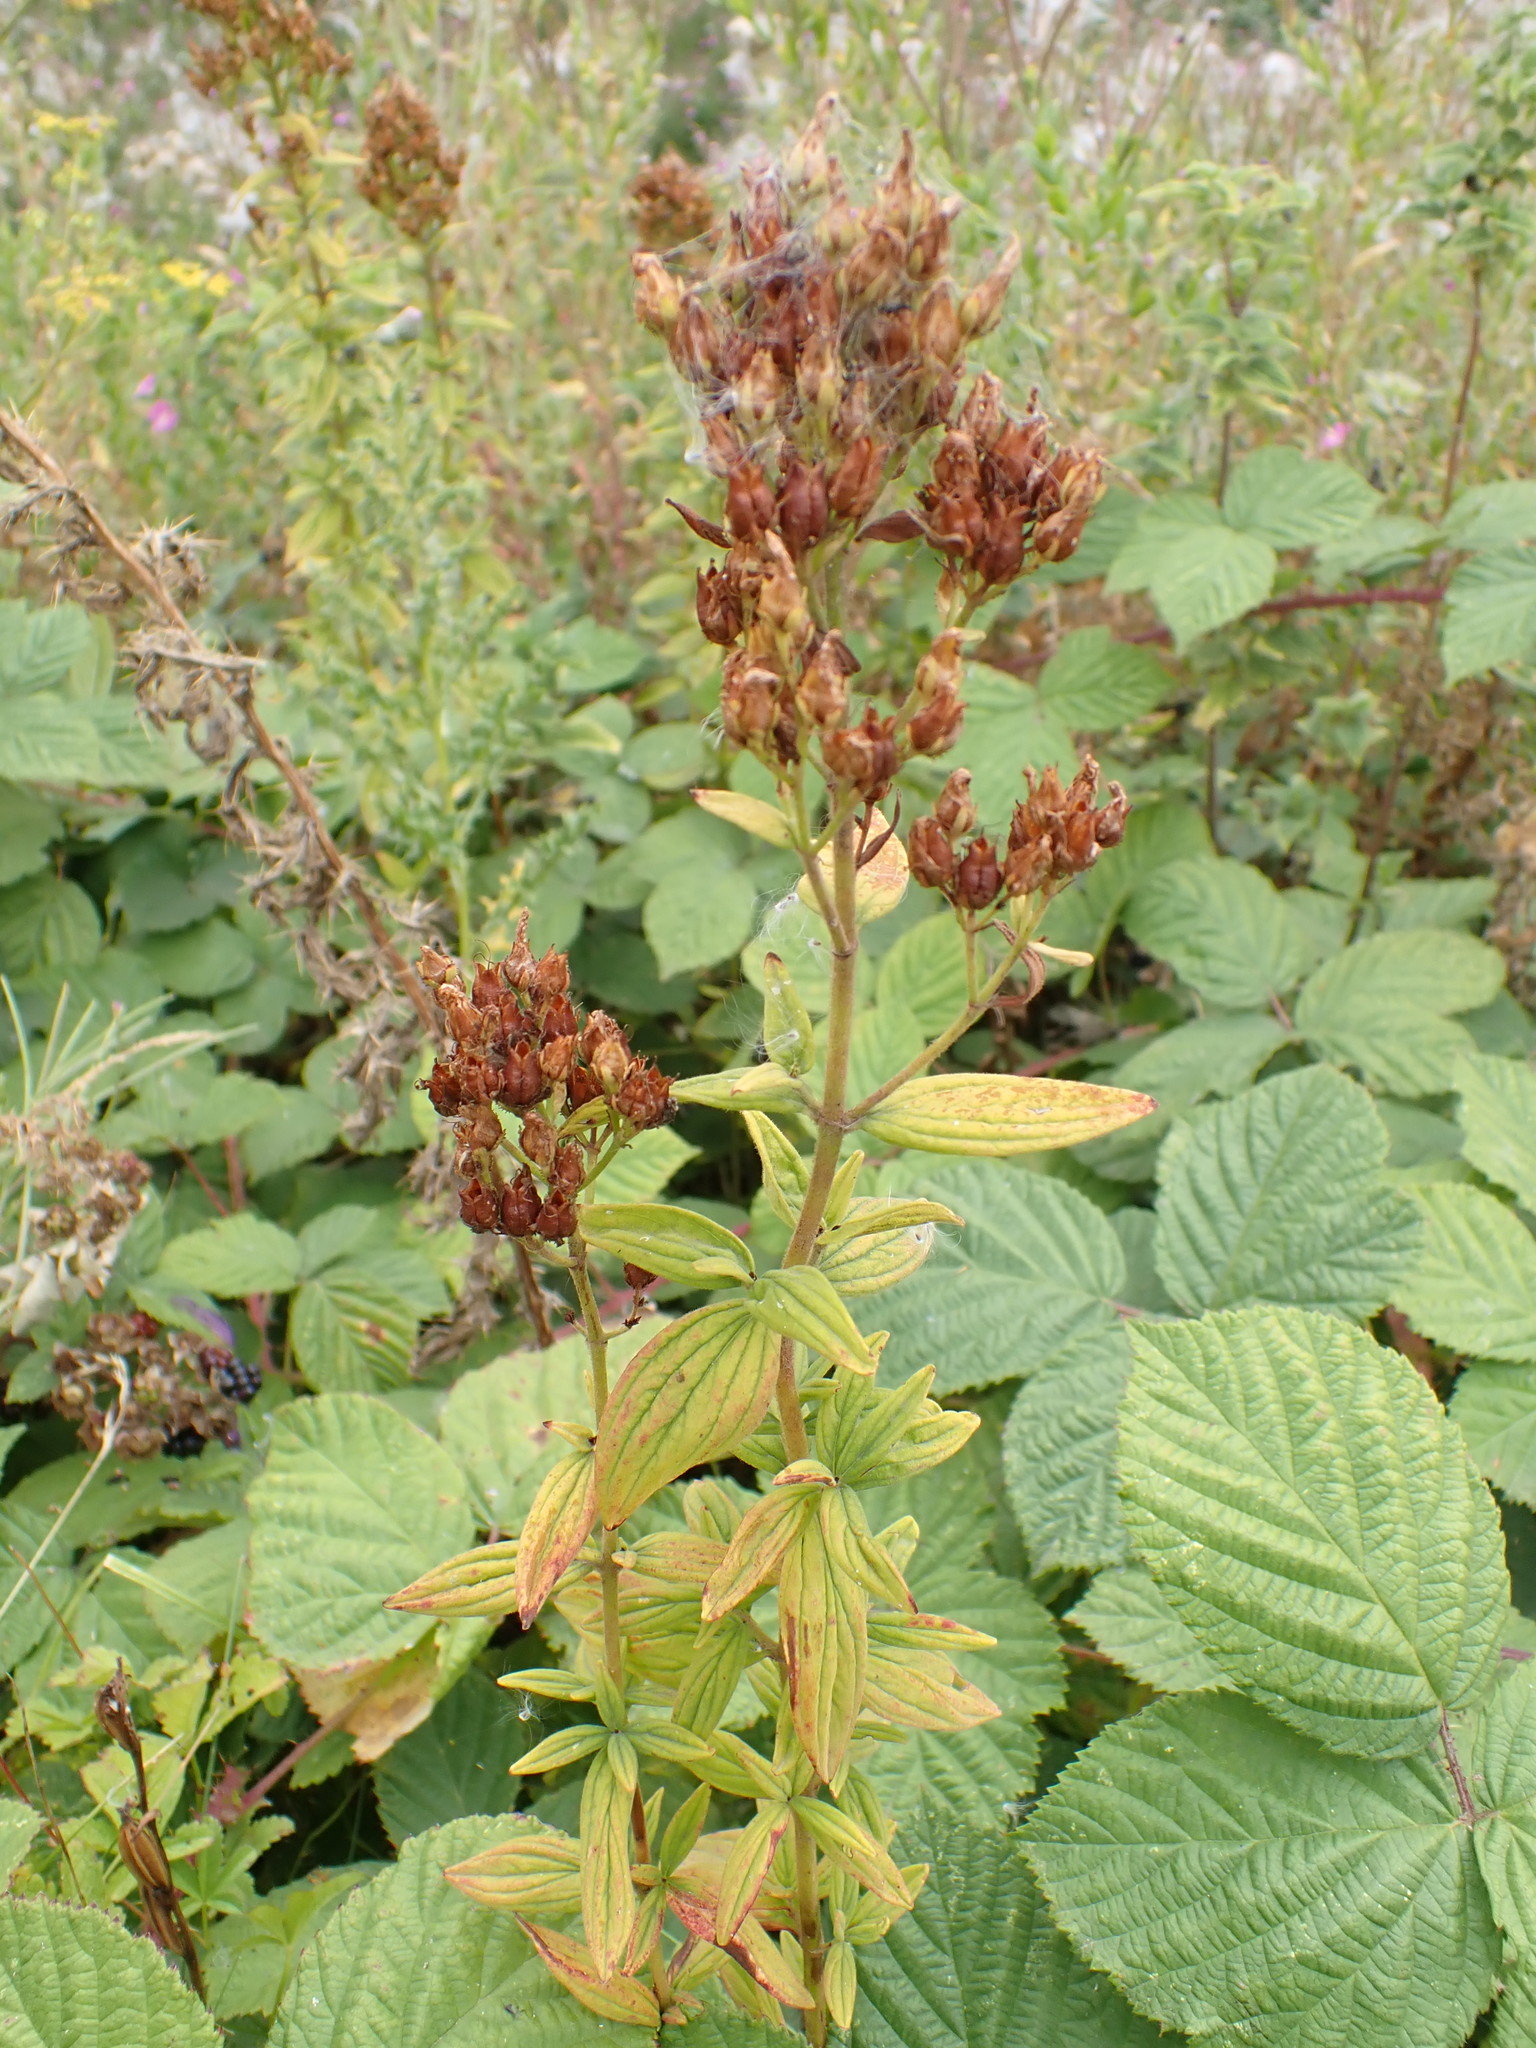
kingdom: Plantae
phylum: Tracheophyta
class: Magnoliopsida
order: Malpighiales
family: Hypericaceae
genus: Hypericum
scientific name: Hypericum hirsutum
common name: Hairy st. john's-wort
